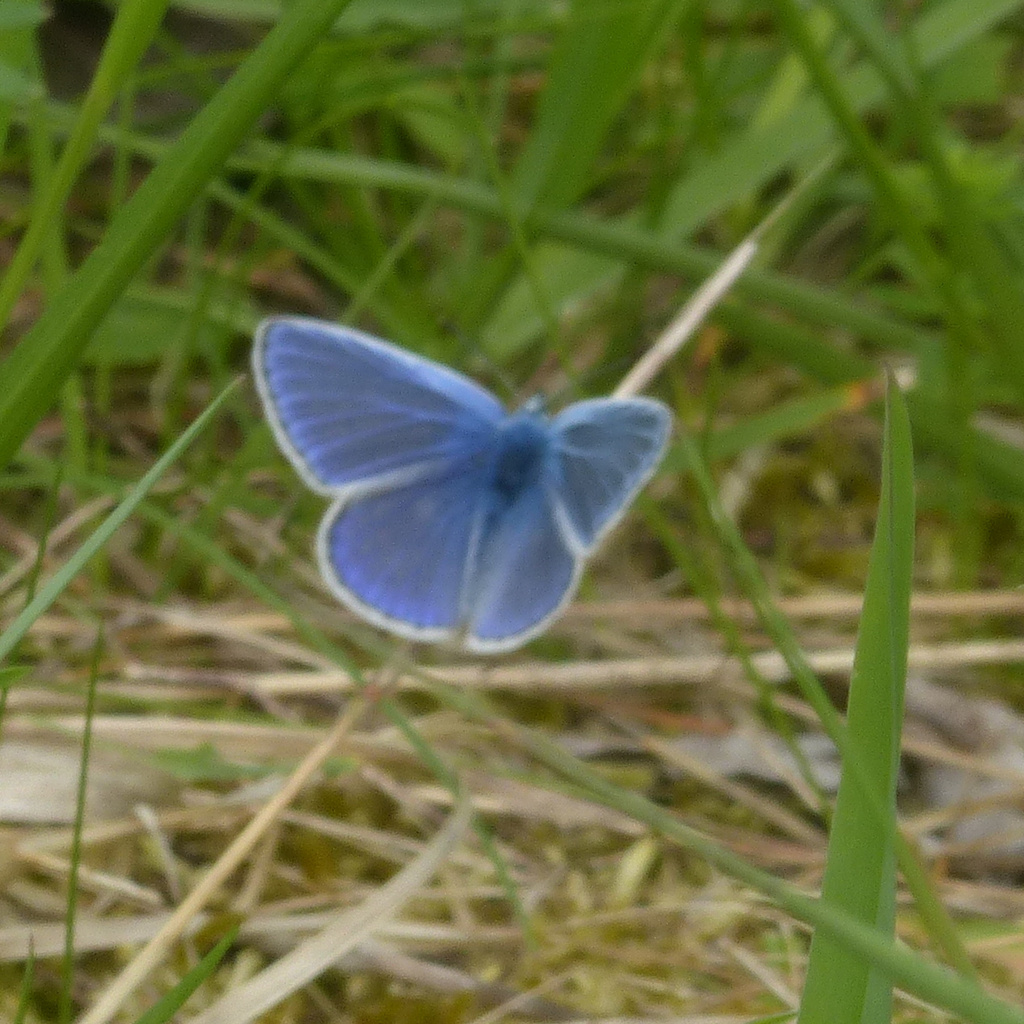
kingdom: Animalia
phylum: Arthropoda
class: Insecta
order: Lepidoptera
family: Lycaenidae
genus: Polyommatus
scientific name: Polyommatus icarus
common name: Common blue
